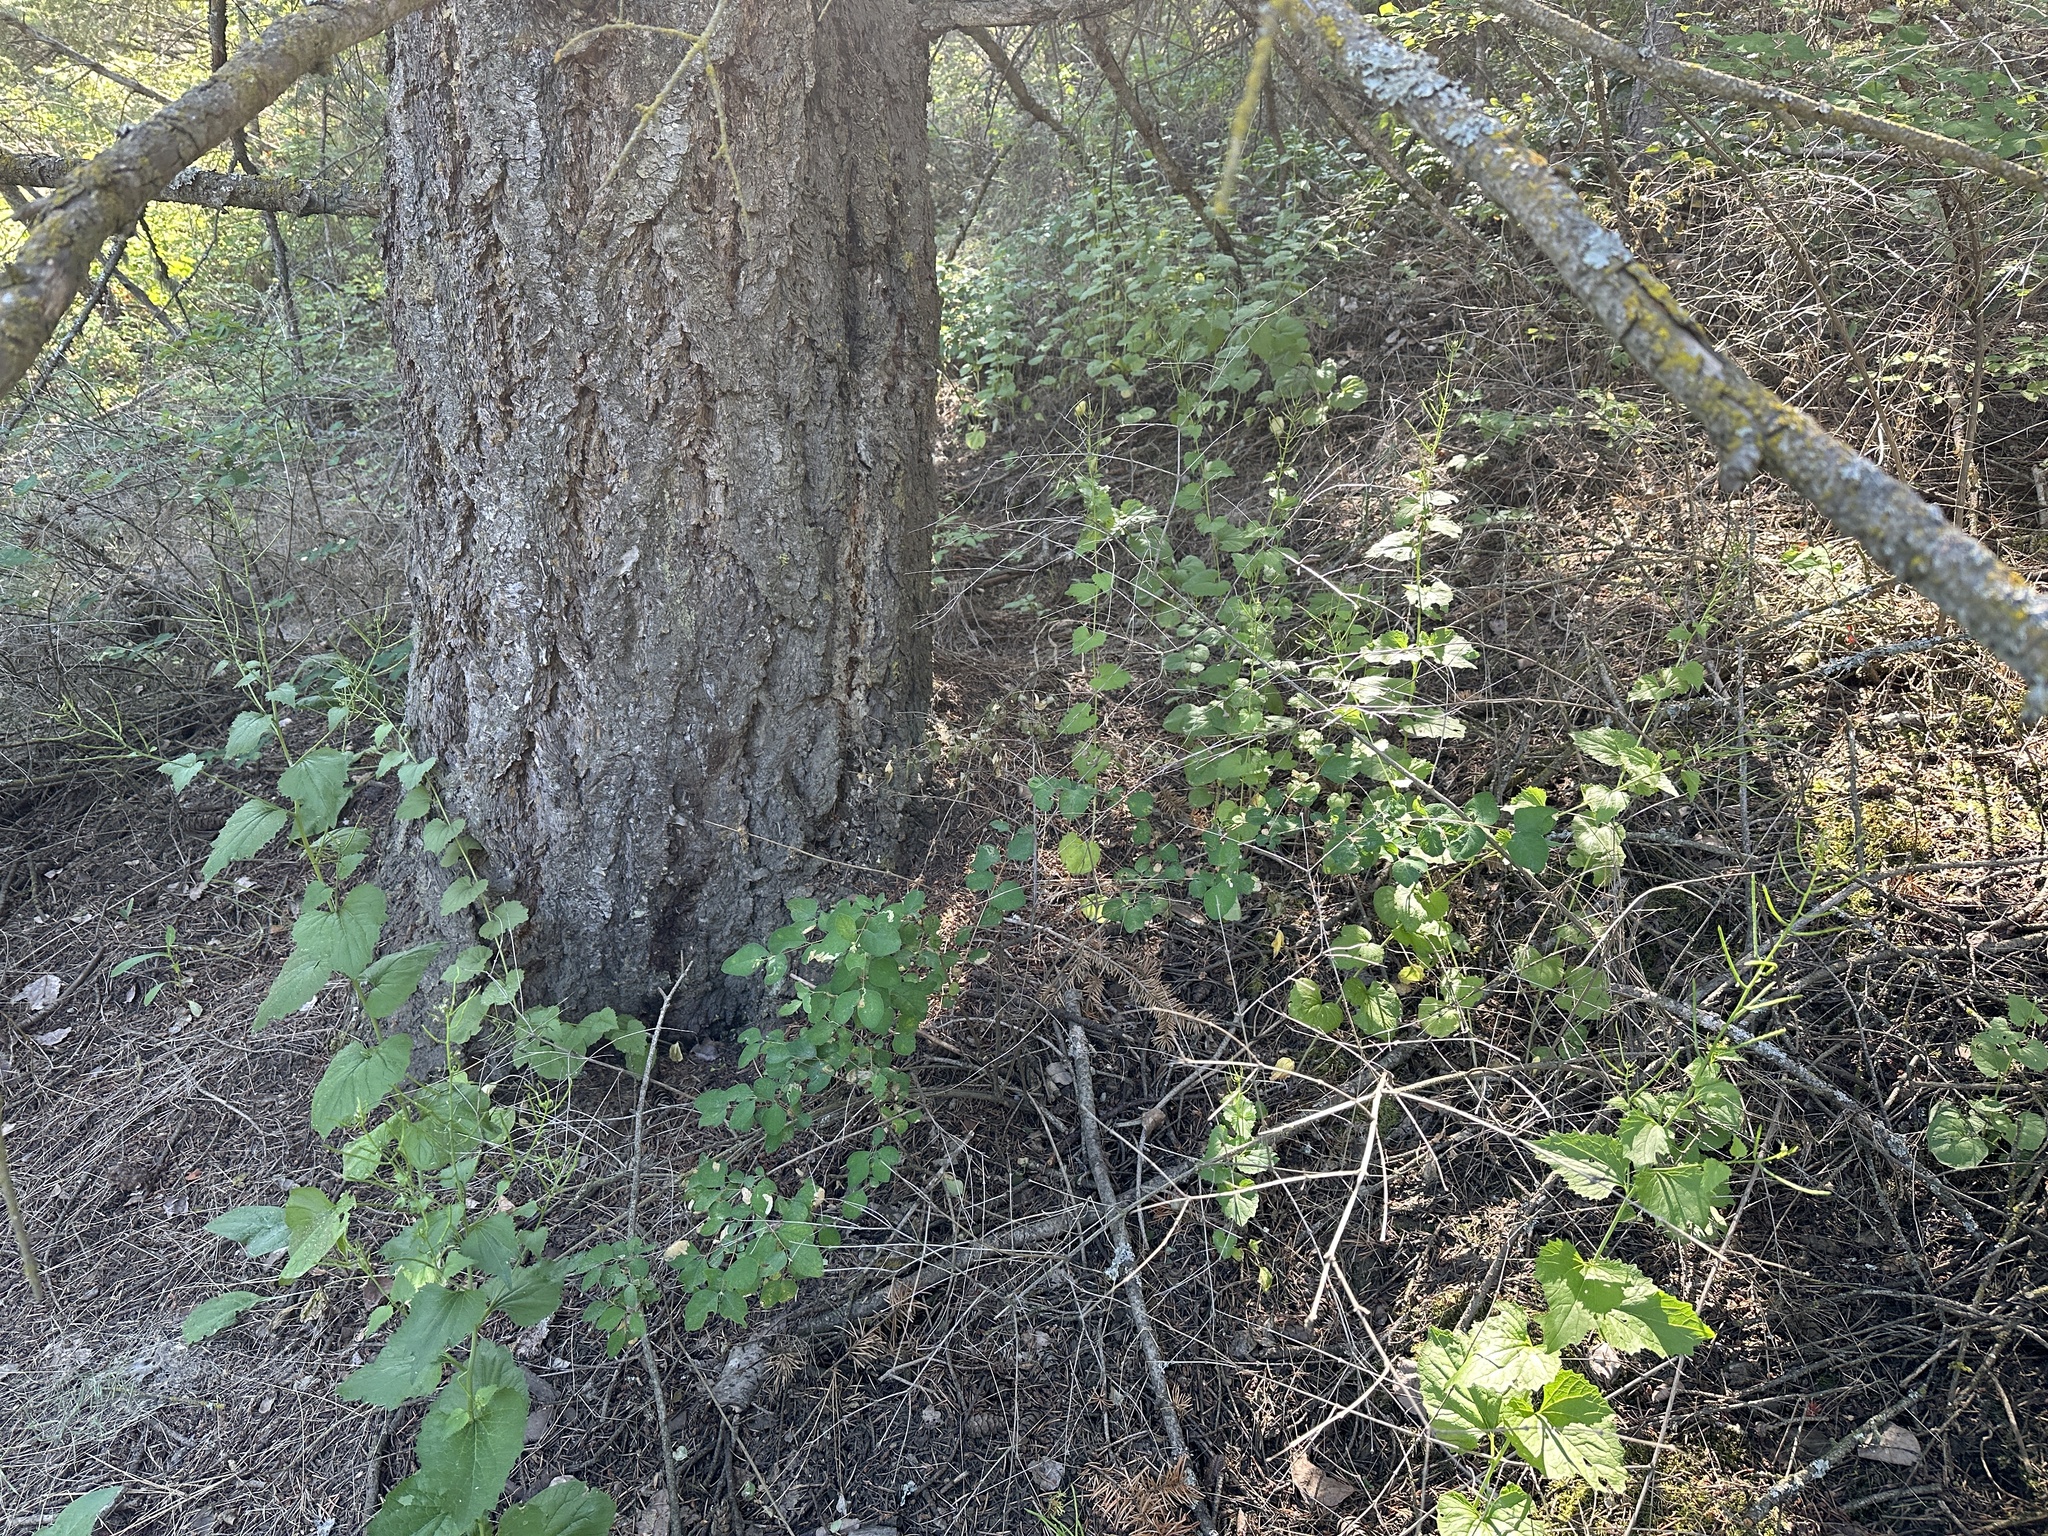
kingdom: Plantae
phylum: Tracheophyta
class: Magnoliopsida
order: Brassicales
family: Brassicaceae
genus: Alliaria
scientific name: Alliaria petiolata
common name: Garlic mustard
